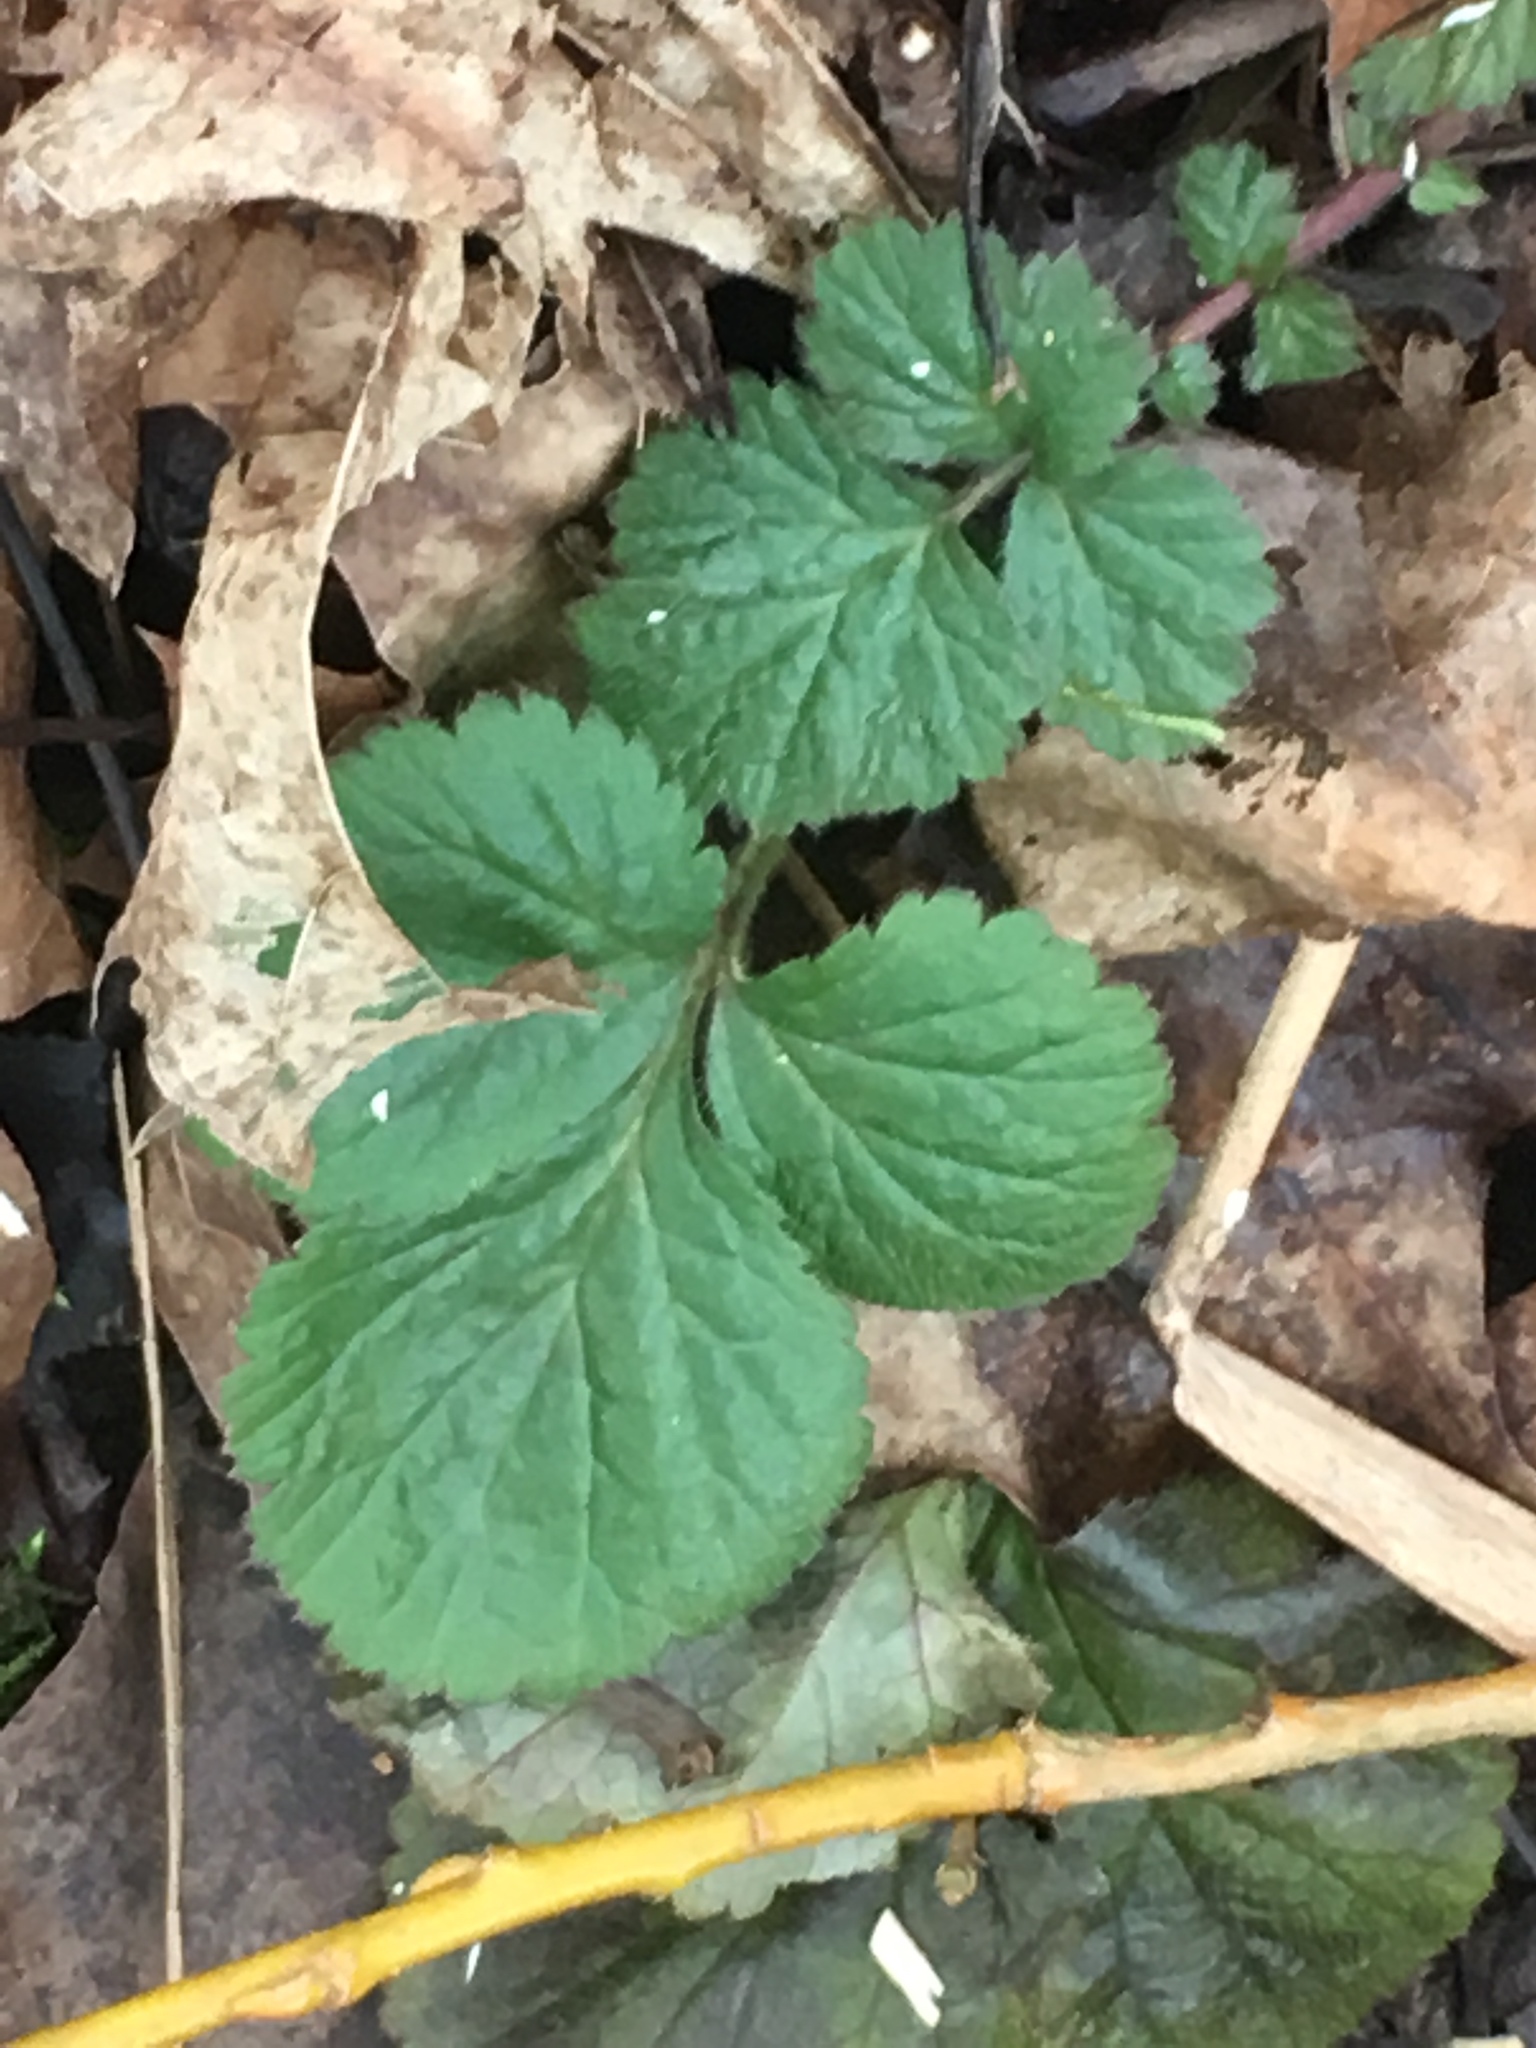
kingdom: Plantae
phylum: Tracheophyta
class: Magnoliopsida
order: Rosales
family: Rosaceae
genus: Geum
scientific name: Geum urbanum
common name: Wood avens
